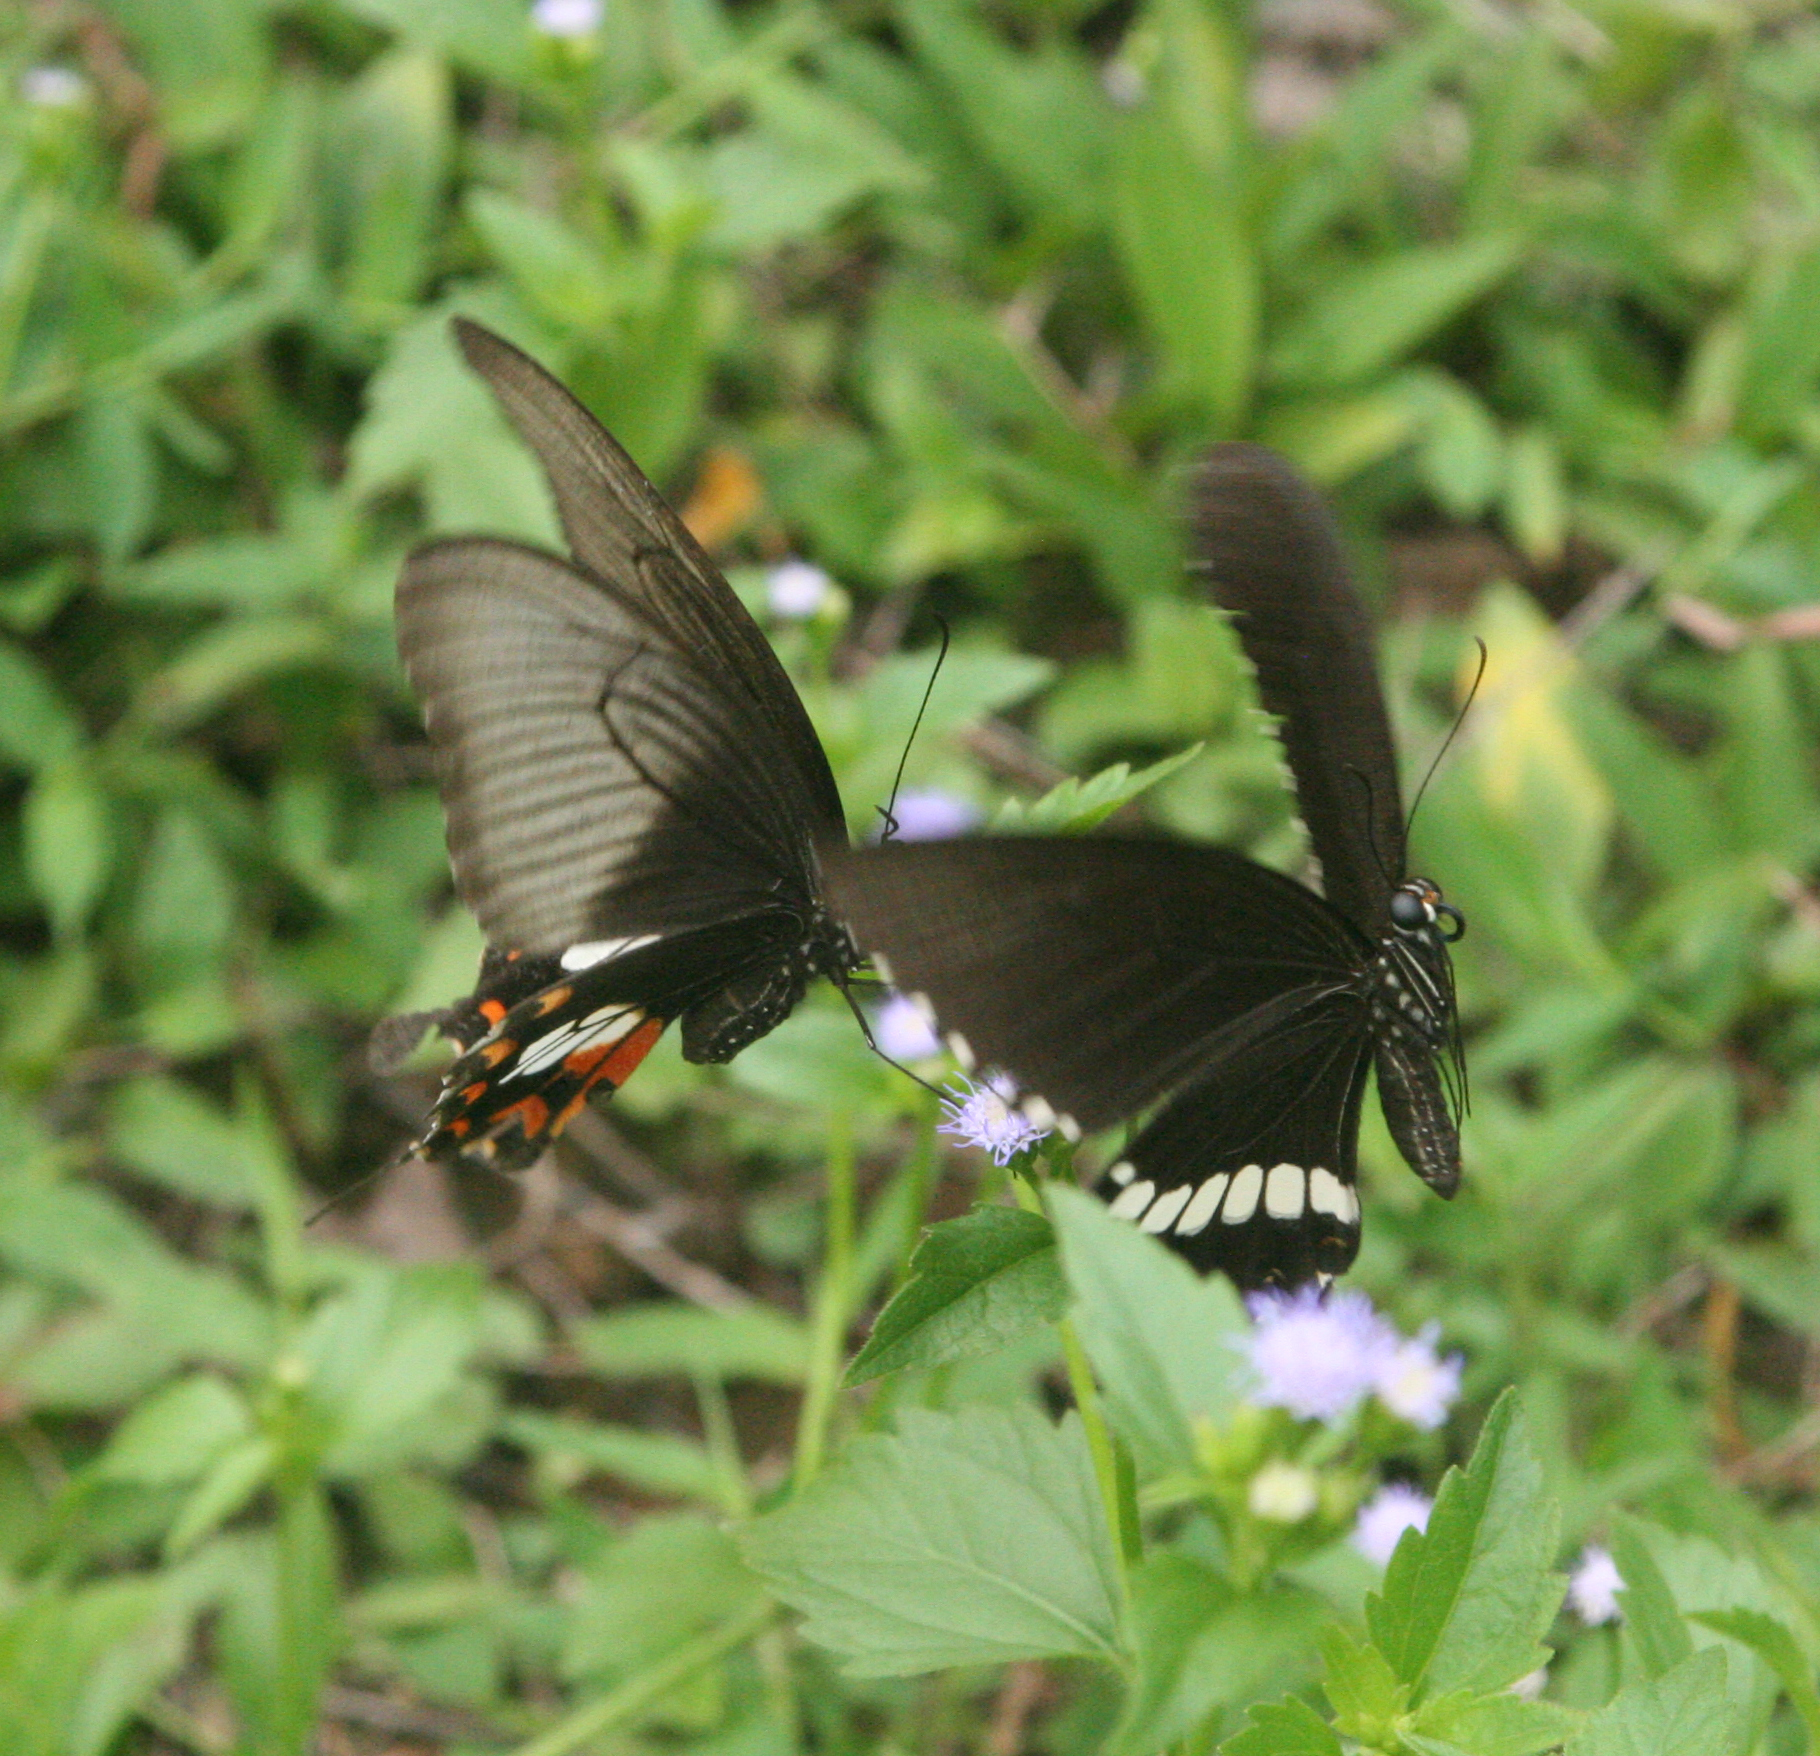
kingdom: Animalia
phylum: Arthropoda
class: Insecta
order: Lepidoptera
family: Papilionidae
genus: Papilio
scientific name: Papilio polytes
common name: Common mormon
